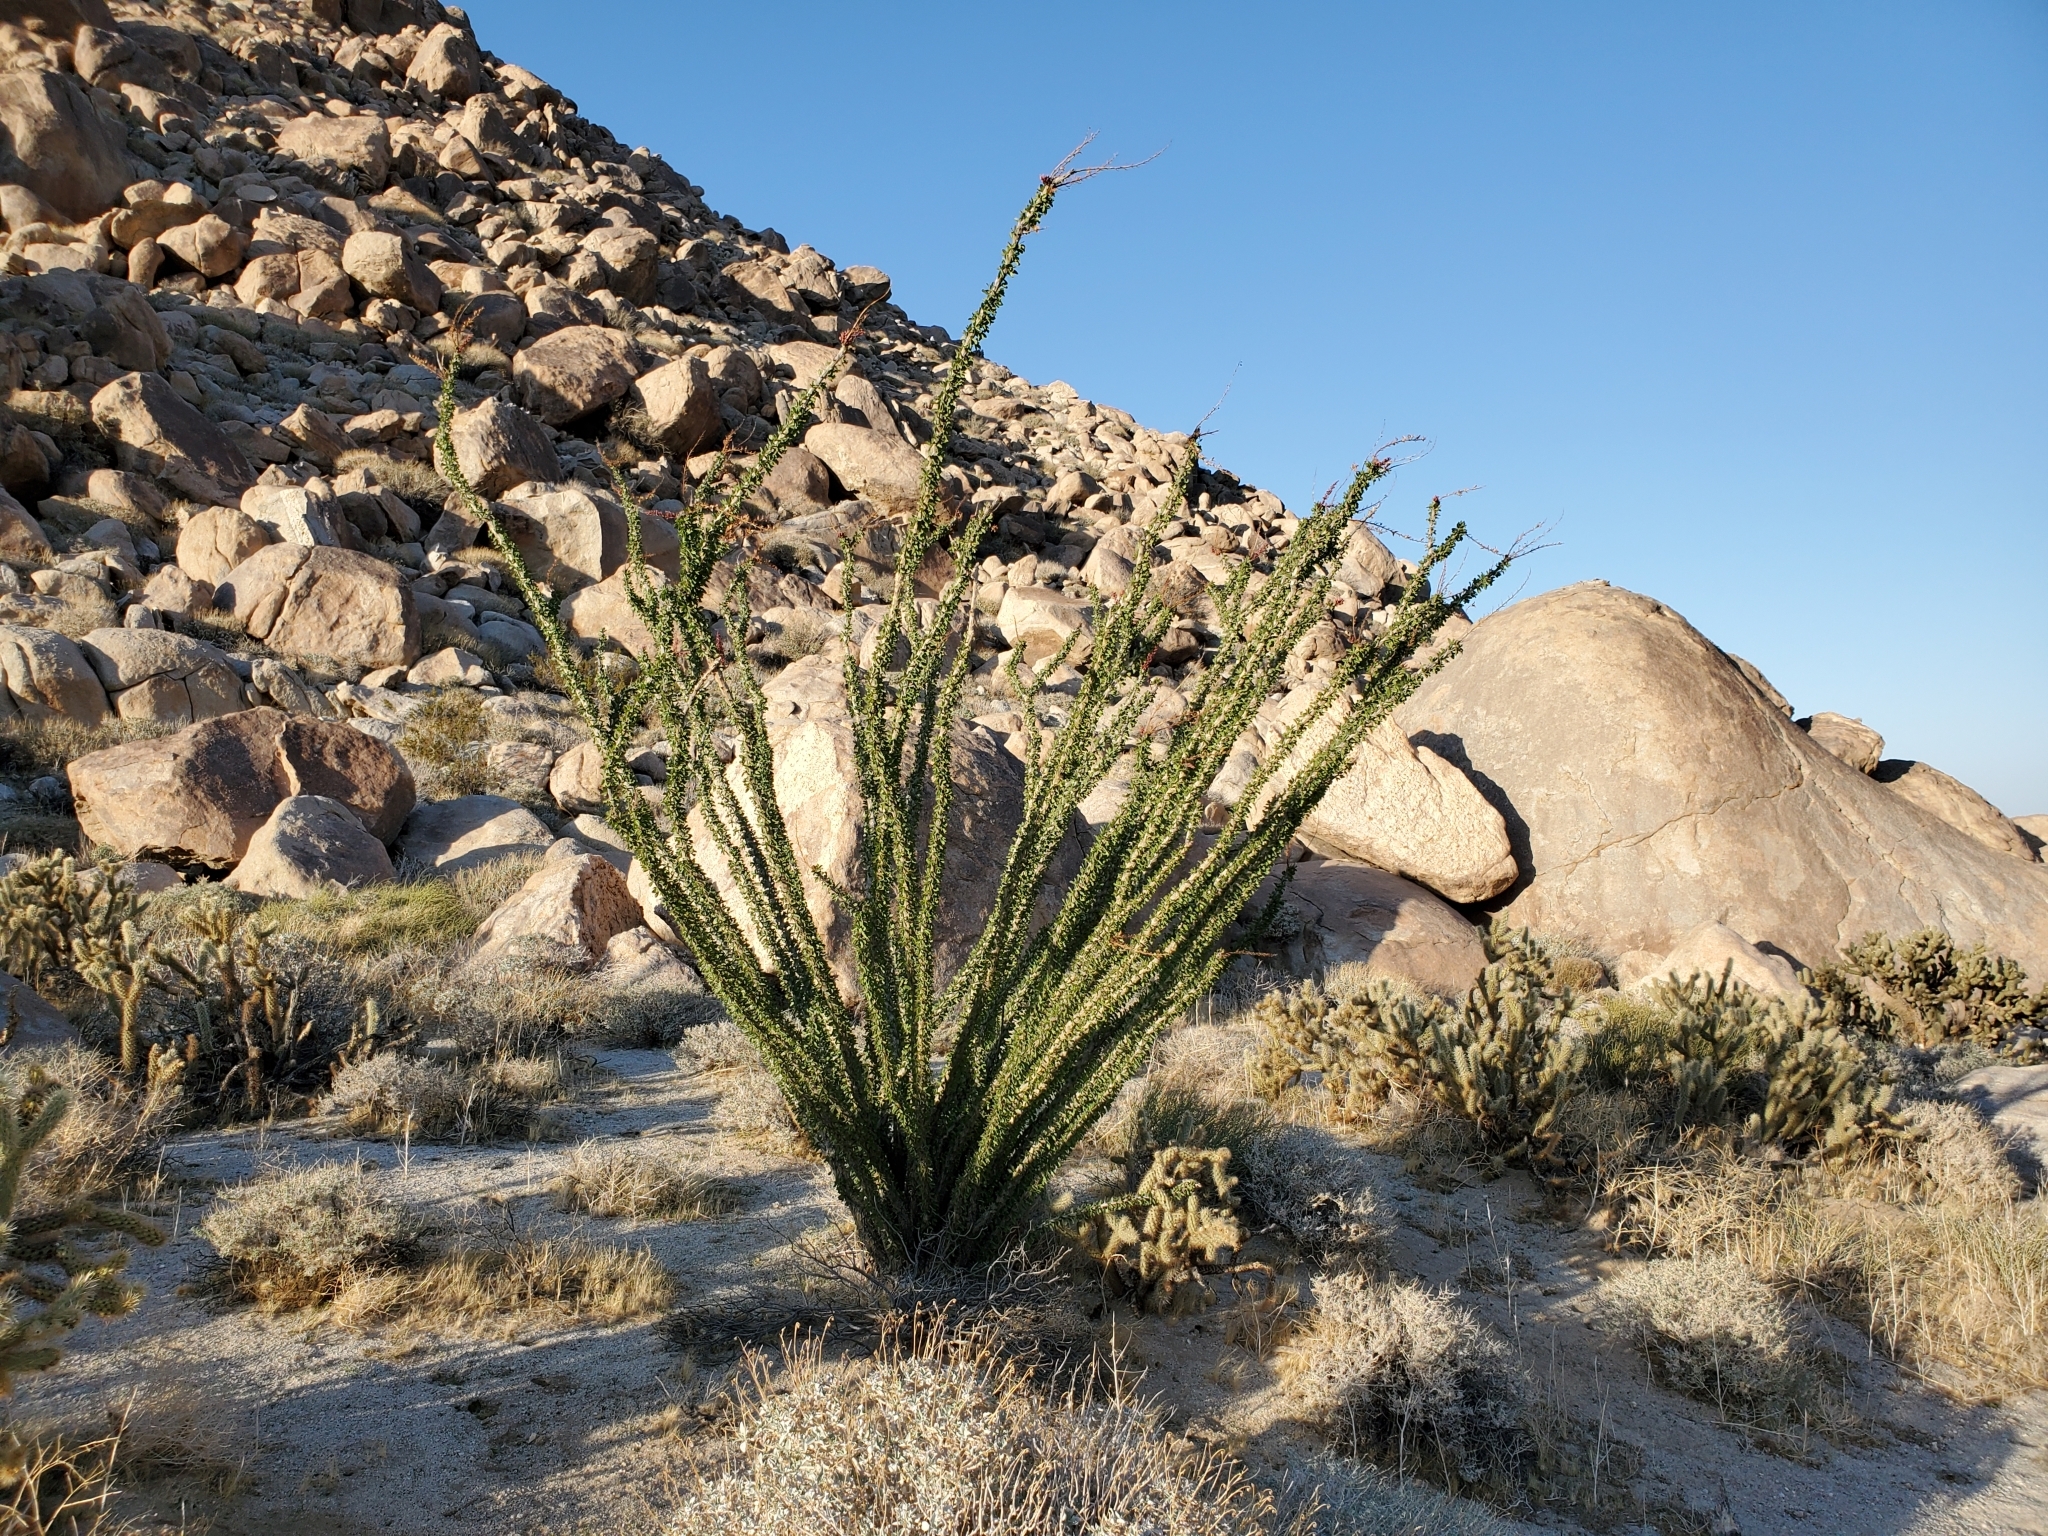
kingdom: Plantae
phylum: Tracheophyta
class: Magnoliopsida
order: Ericales
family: Fouquieriaceae
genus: Fouquieria
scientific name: Fouquieria splendens
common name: Vine-cactus
